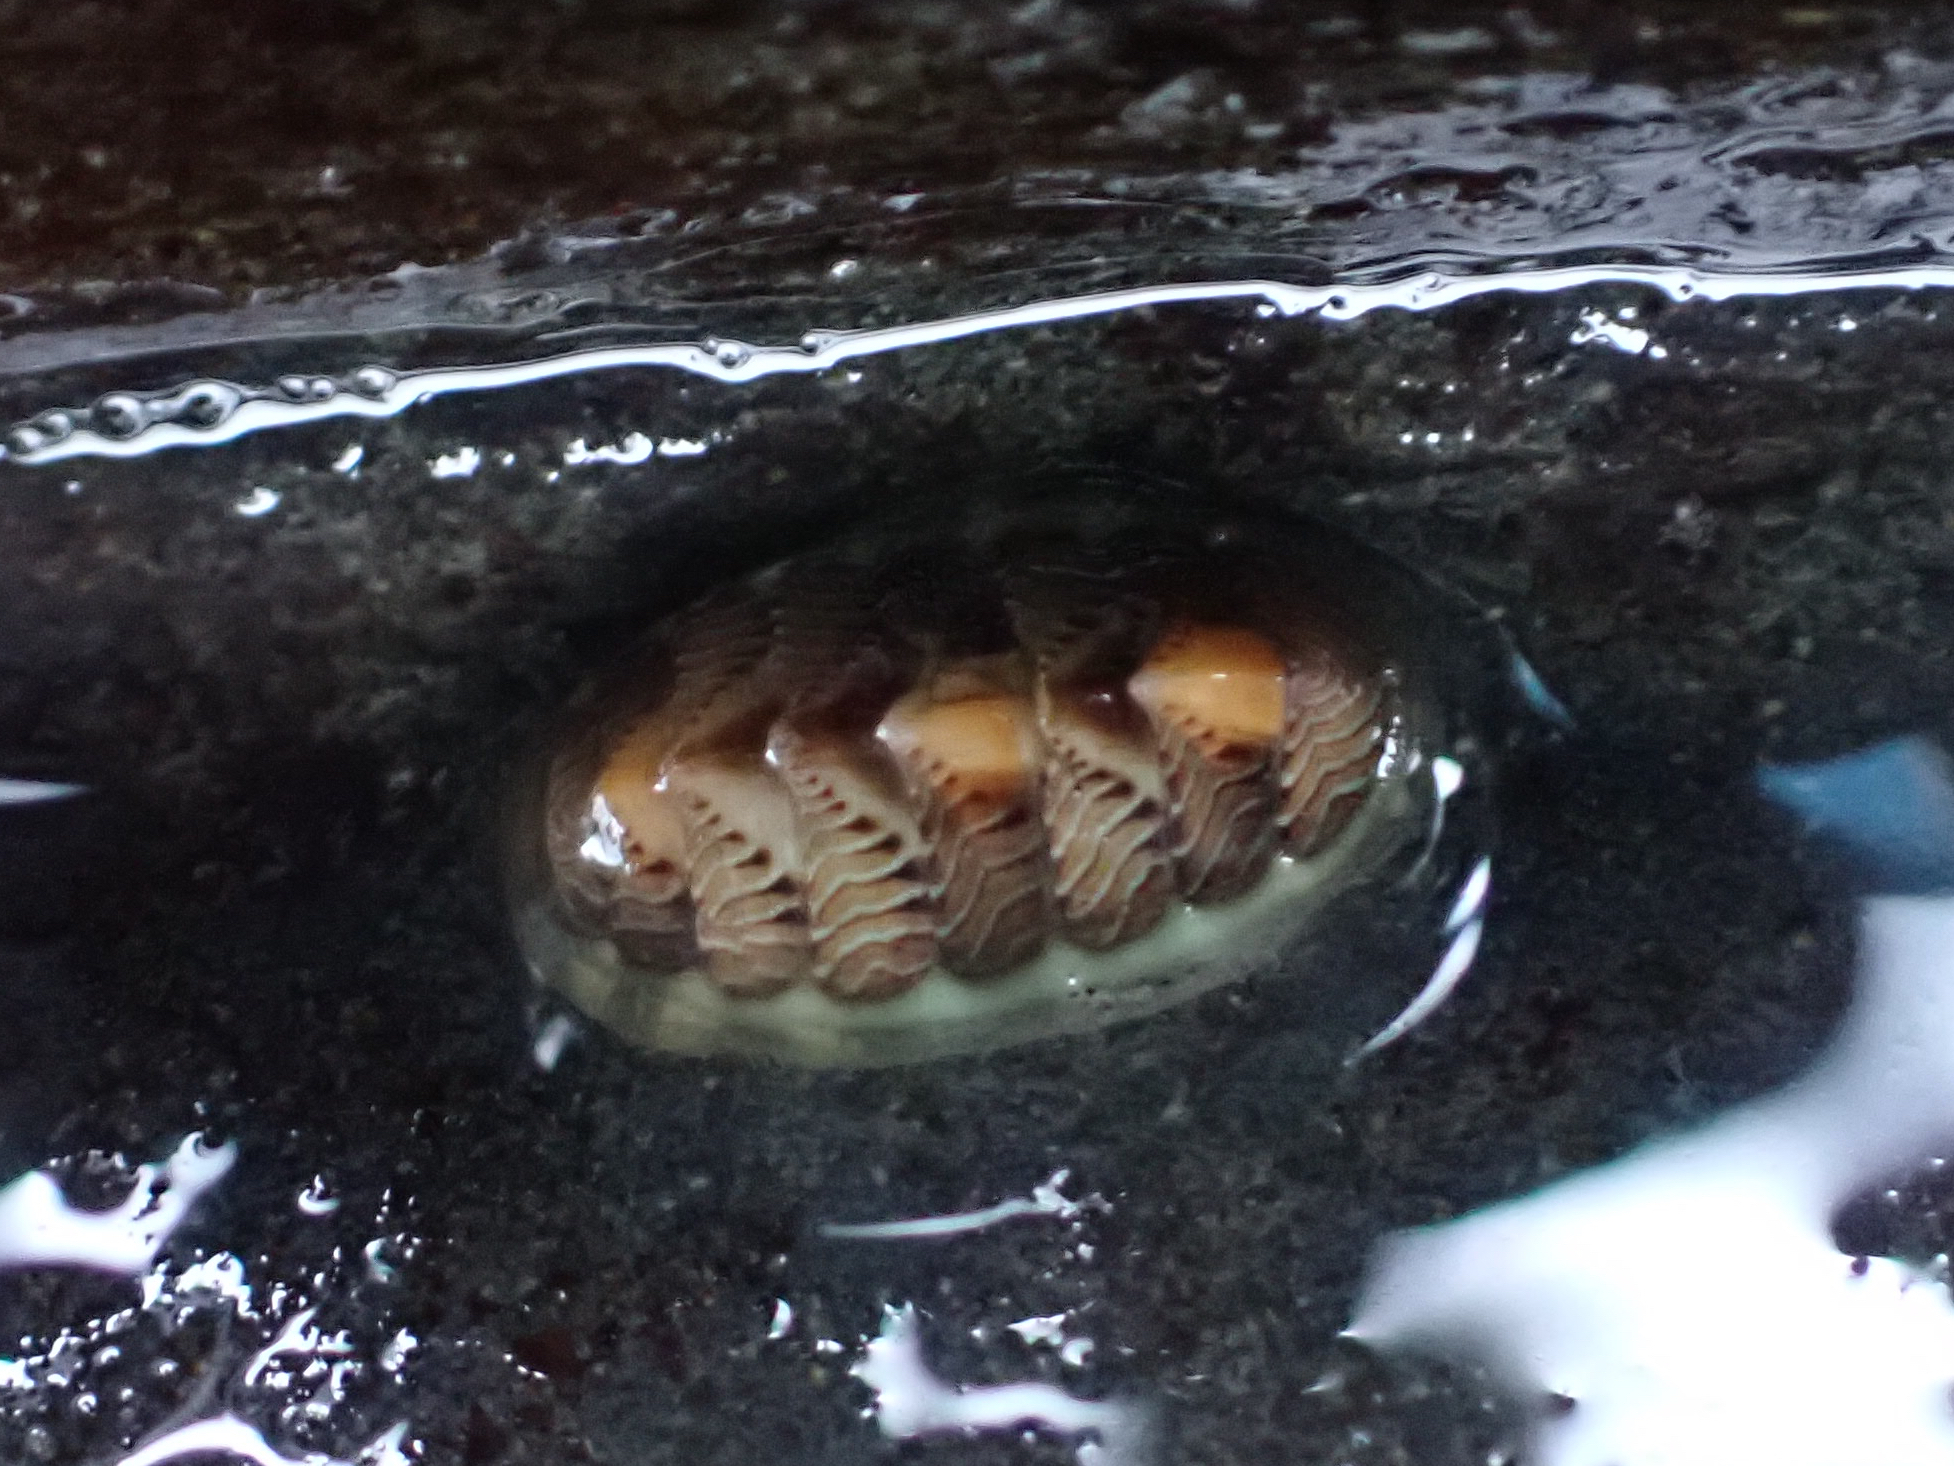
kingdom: Animalia
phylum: Mollusca
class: Polyplacophora
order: Chitonida
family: Tonicellidae
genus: Tonicella
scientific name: Tonicella lineata
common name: Lined chiton
